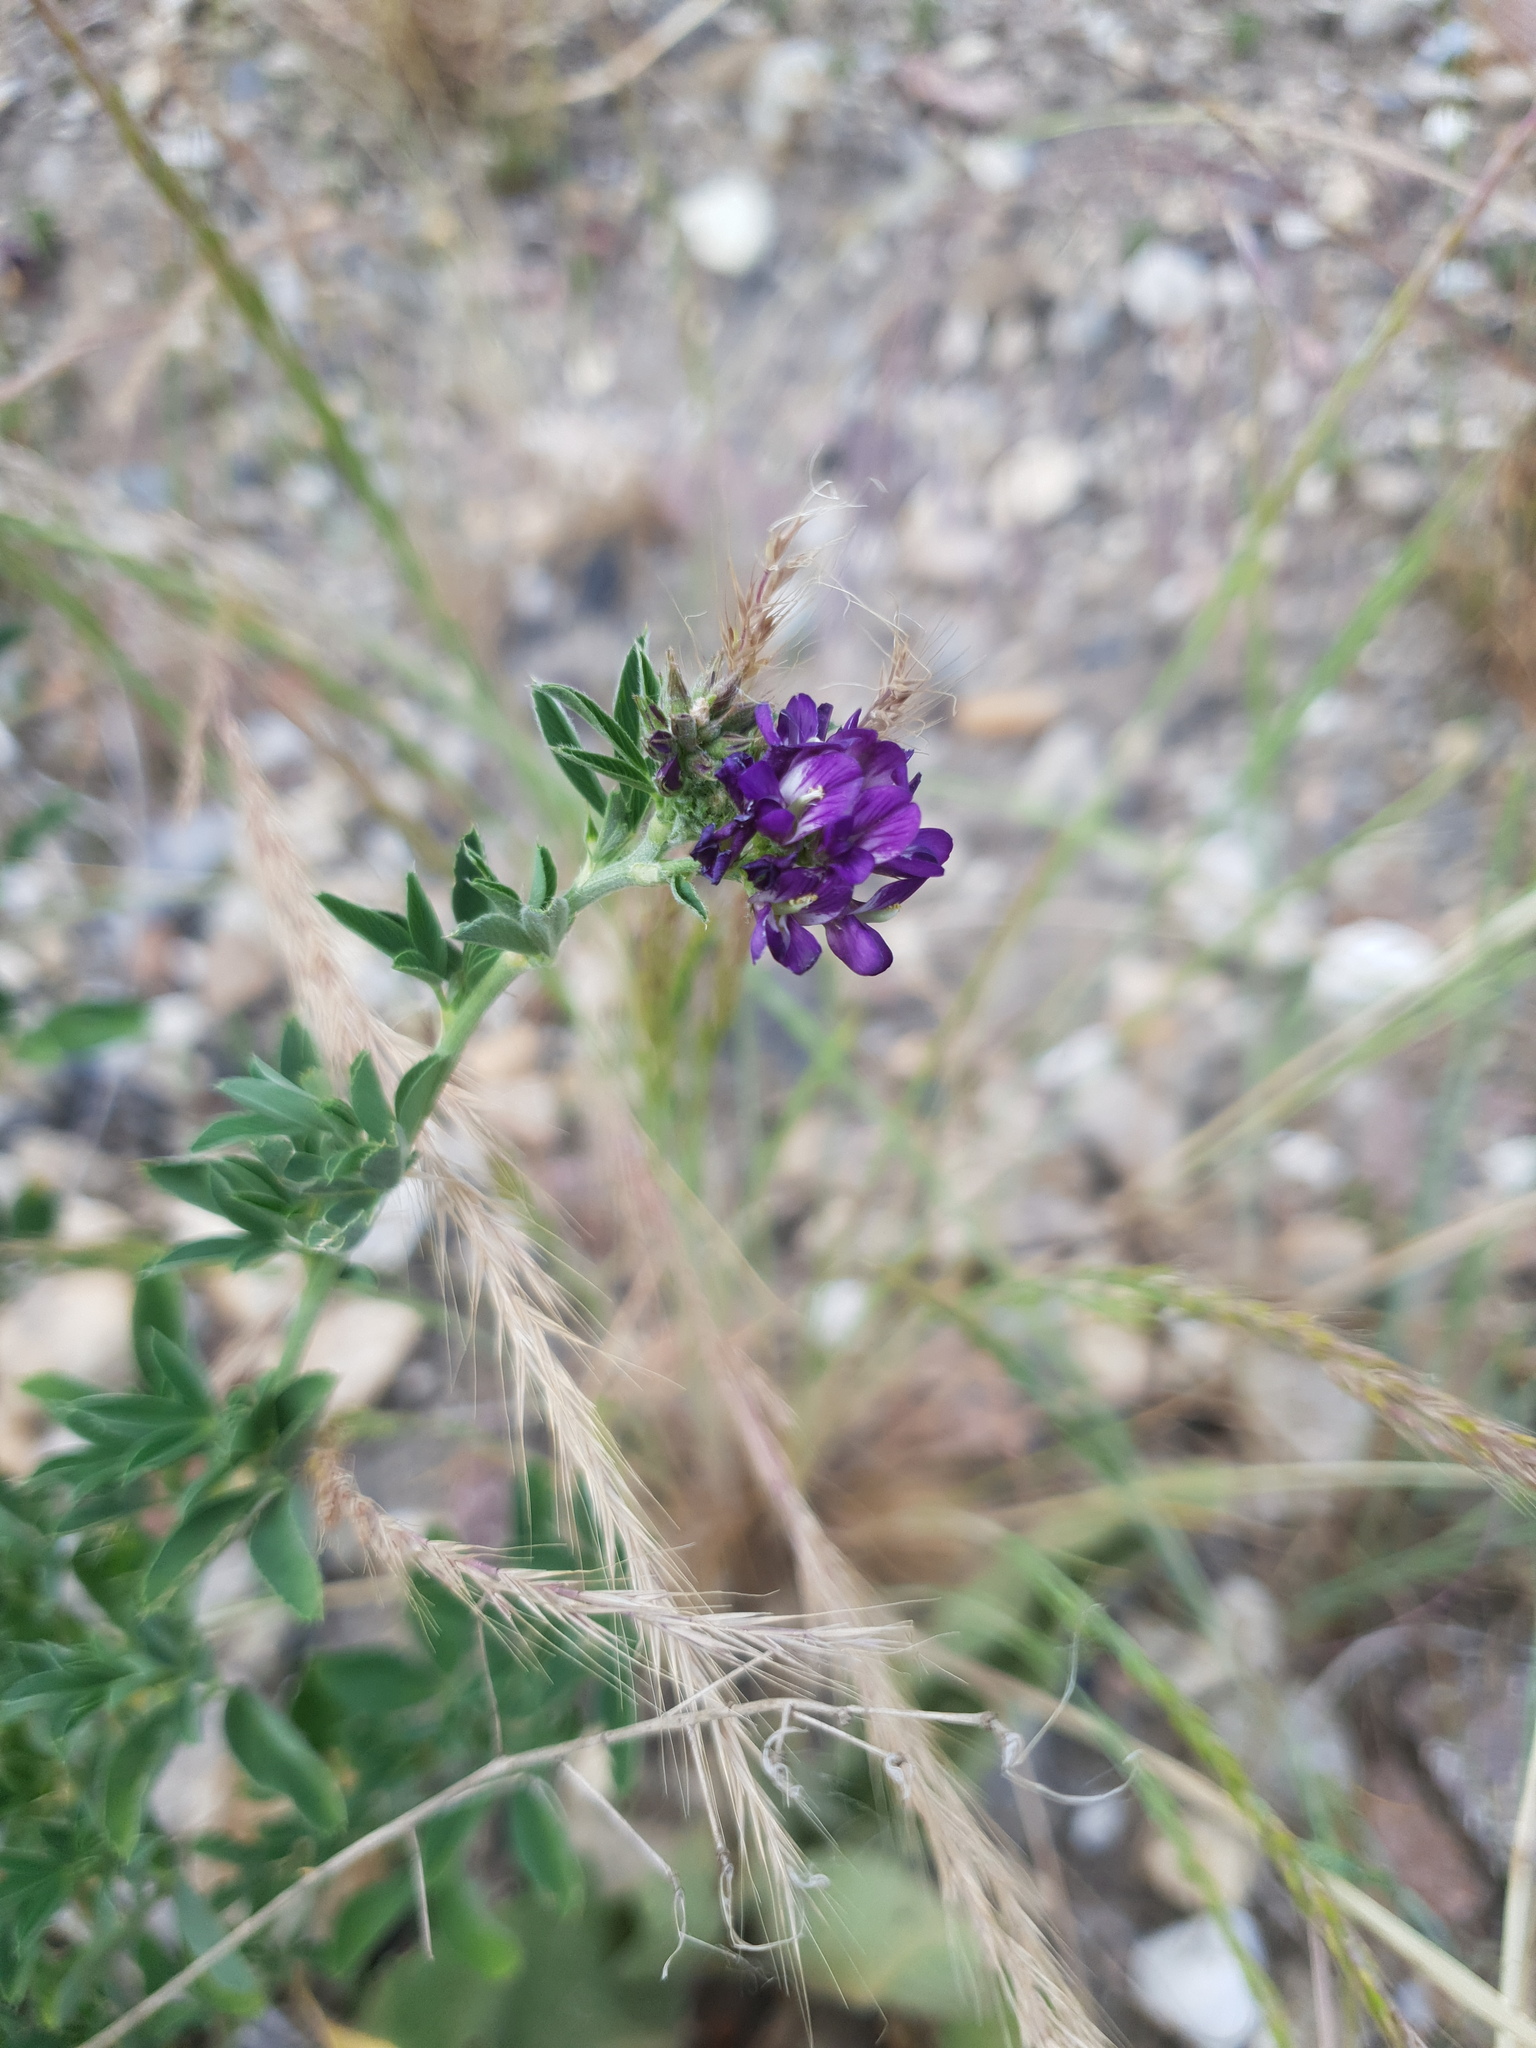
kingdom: Plantae
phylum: Tracheophyta
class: Magnoliopsida
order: Fabales
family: Fabaceae
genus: Medicago
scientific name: Medicago sativa
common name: Alfalfa
